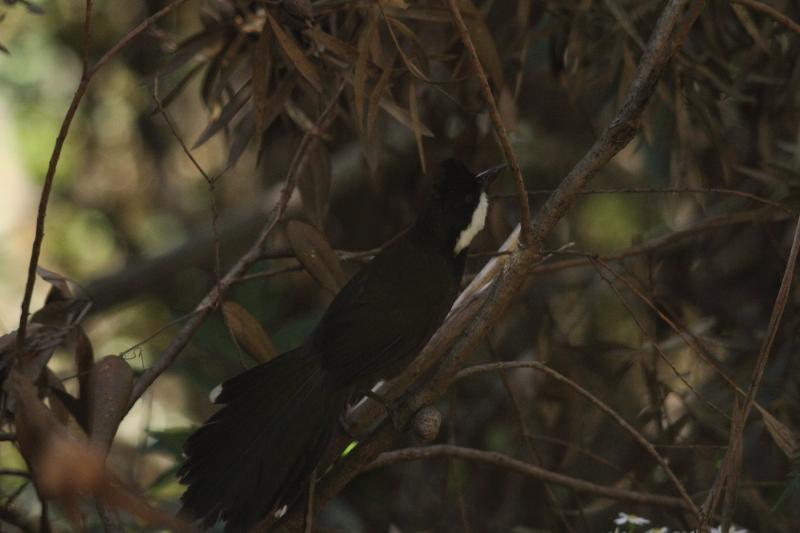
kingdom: Animalia
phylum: Chordata
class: Aves
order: Passeriformes
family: Psophodidae
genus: Psophodes
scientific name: Psophodes olivaceus
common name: Eastern whipbird
